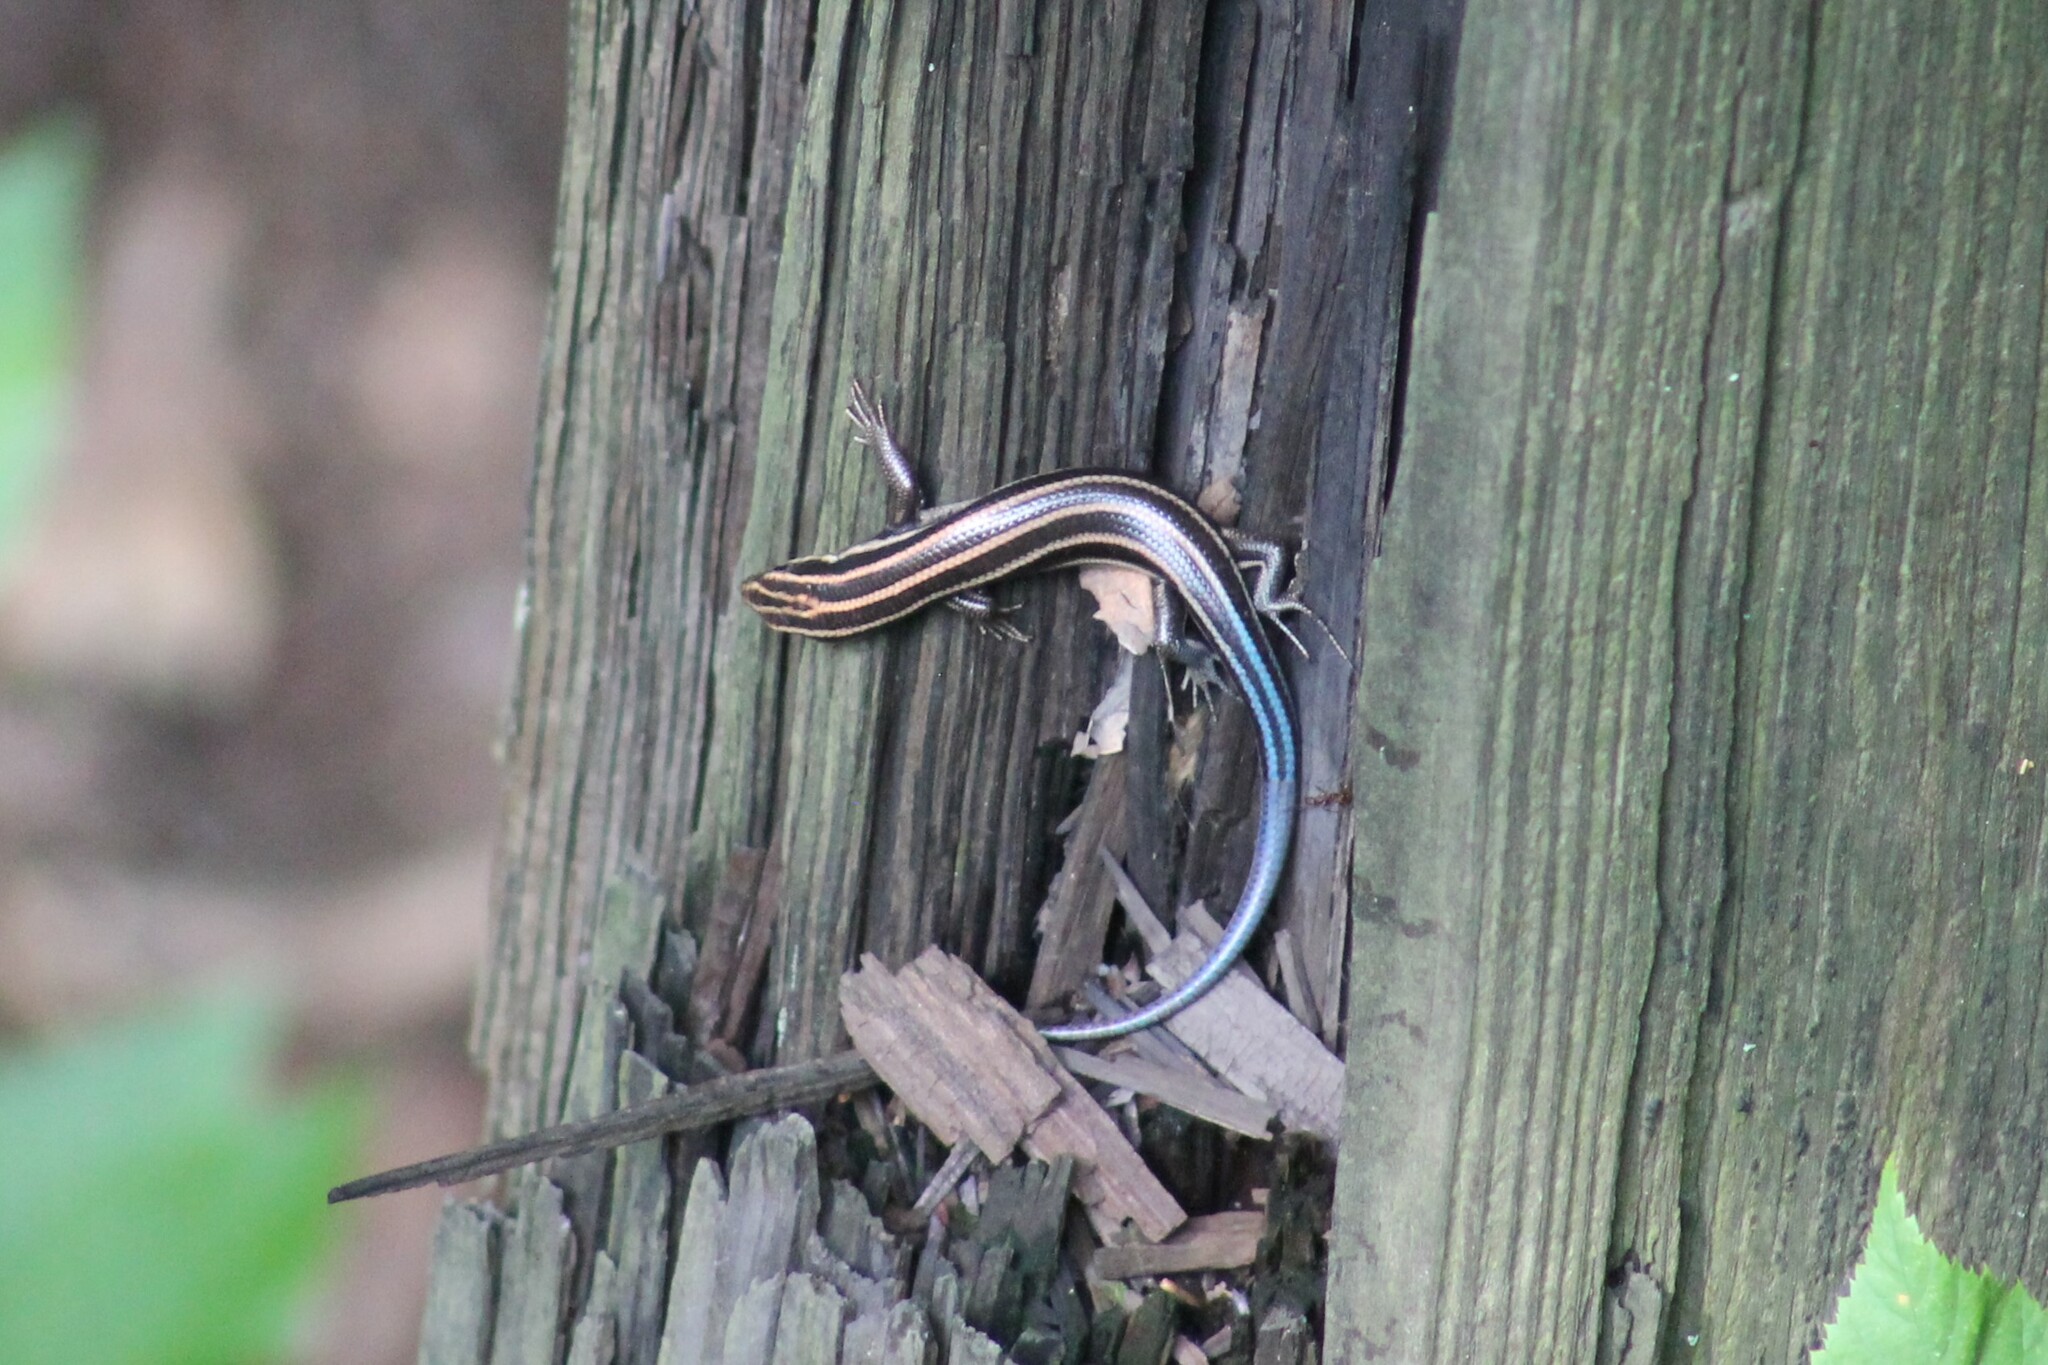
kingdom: Animalia
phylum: Chordata
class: Squamata
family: Scincidae
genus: Plestiodon
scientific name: Plestiodon fasciatus
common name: Five-lined skink
